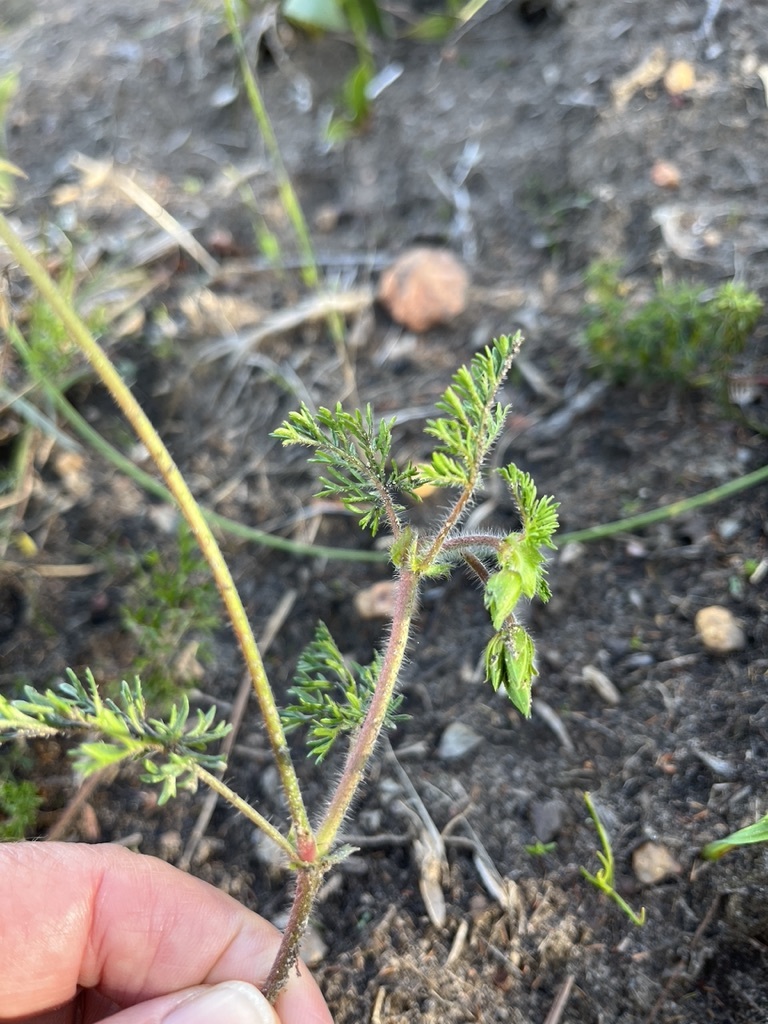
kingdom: Plantae
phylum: Tracheophyta
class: Magnoliopsida
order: Geraniales
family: Geraniaceae
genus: Pelargonium
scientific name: Pelargonium myrrhifolium
